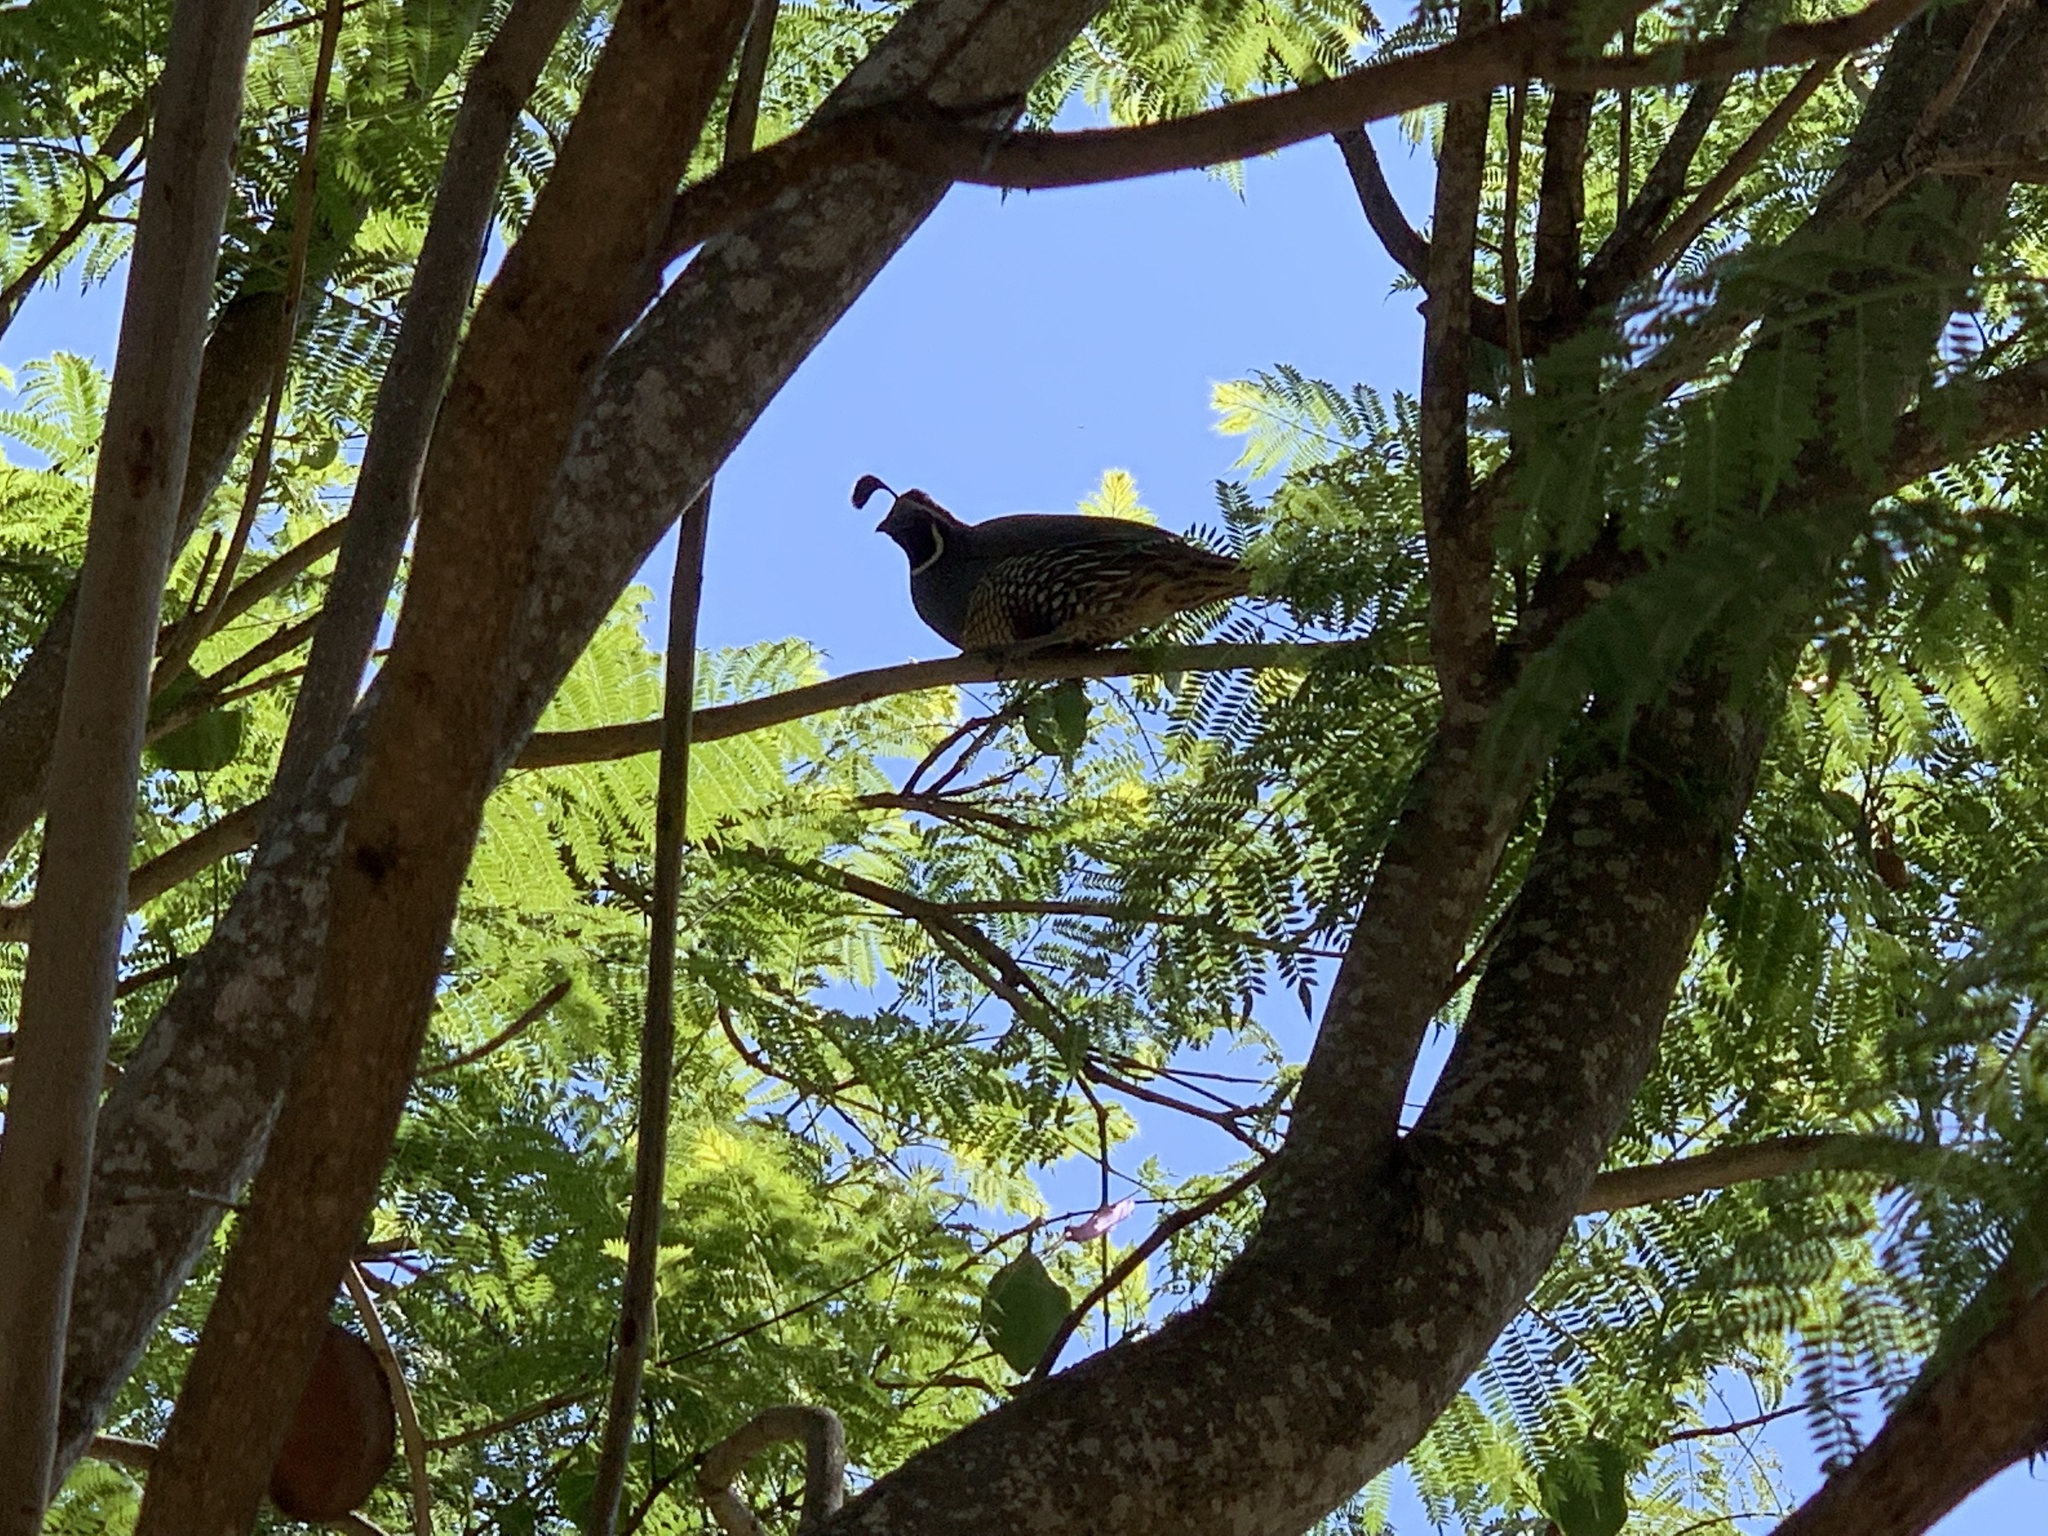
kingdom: Animalia
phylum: Chordata
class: Aves
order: Galliformes
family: Odontophoridae
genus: Callipepla
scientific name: Callipepla californica
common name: California quail
